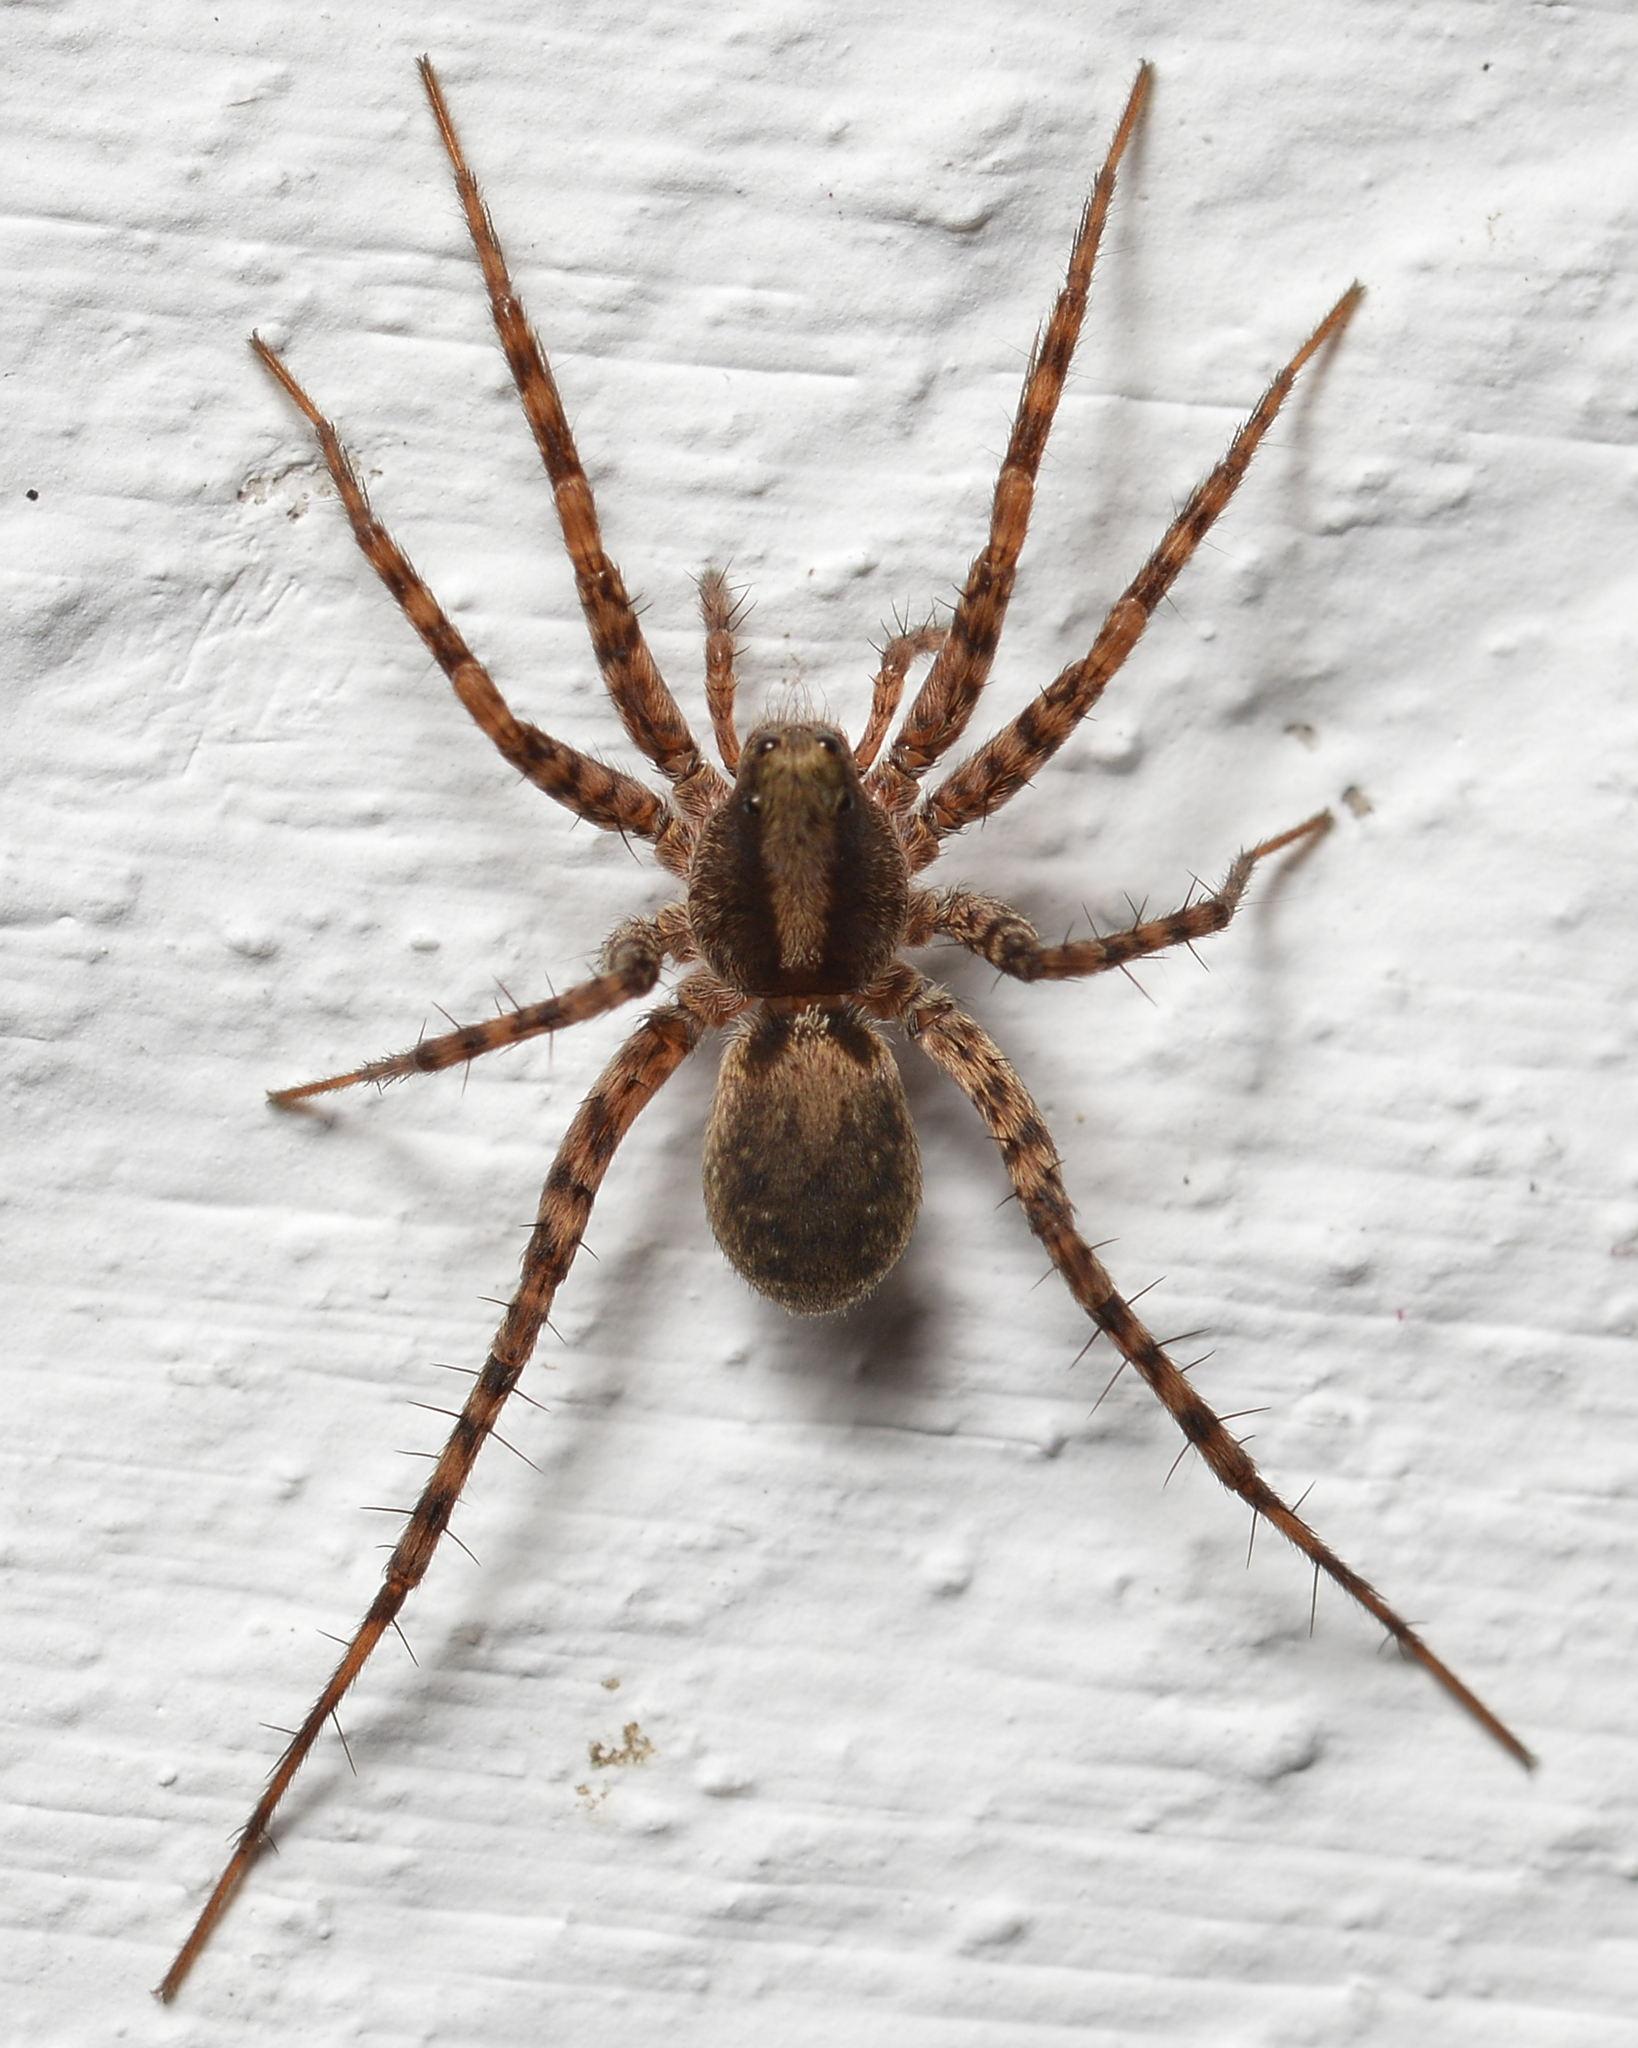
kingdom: Animalia
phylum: Arthropoda
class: Arachnida
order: Araneae
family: Lycosidae
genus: Pardosa
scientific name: Pardosa
